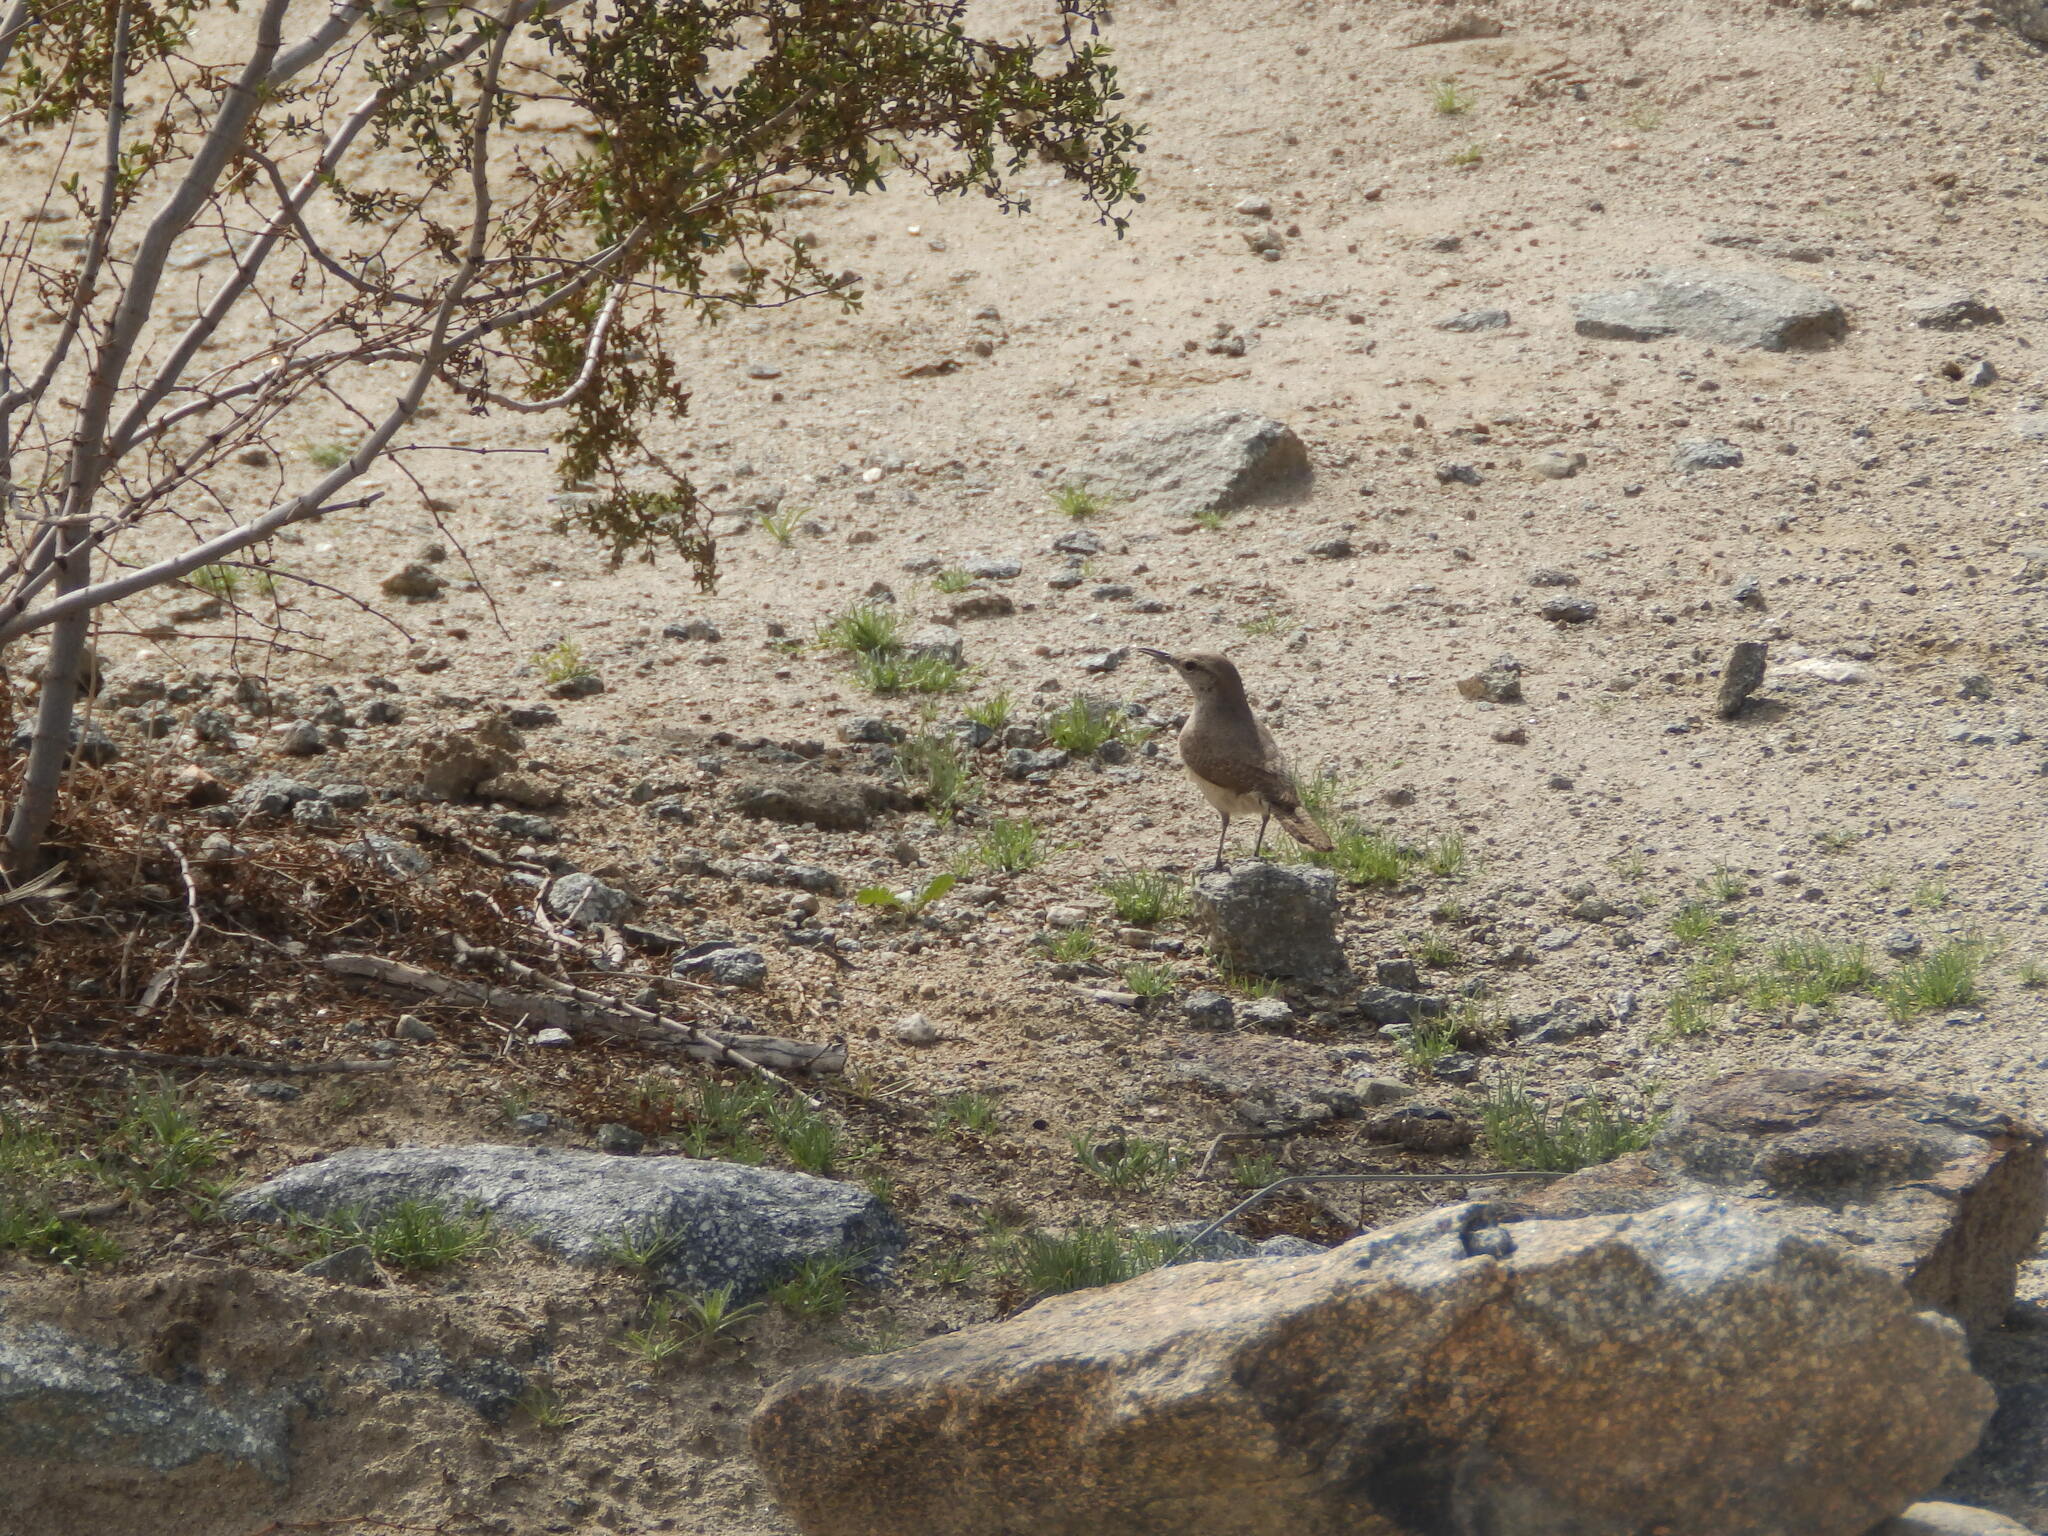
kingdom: Animalia
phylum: Chordata
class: Aves
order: Passeriformes
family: Troglodytidae
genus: Salpinctes
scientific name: Salpinctes obsoletus
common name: Rock wren
